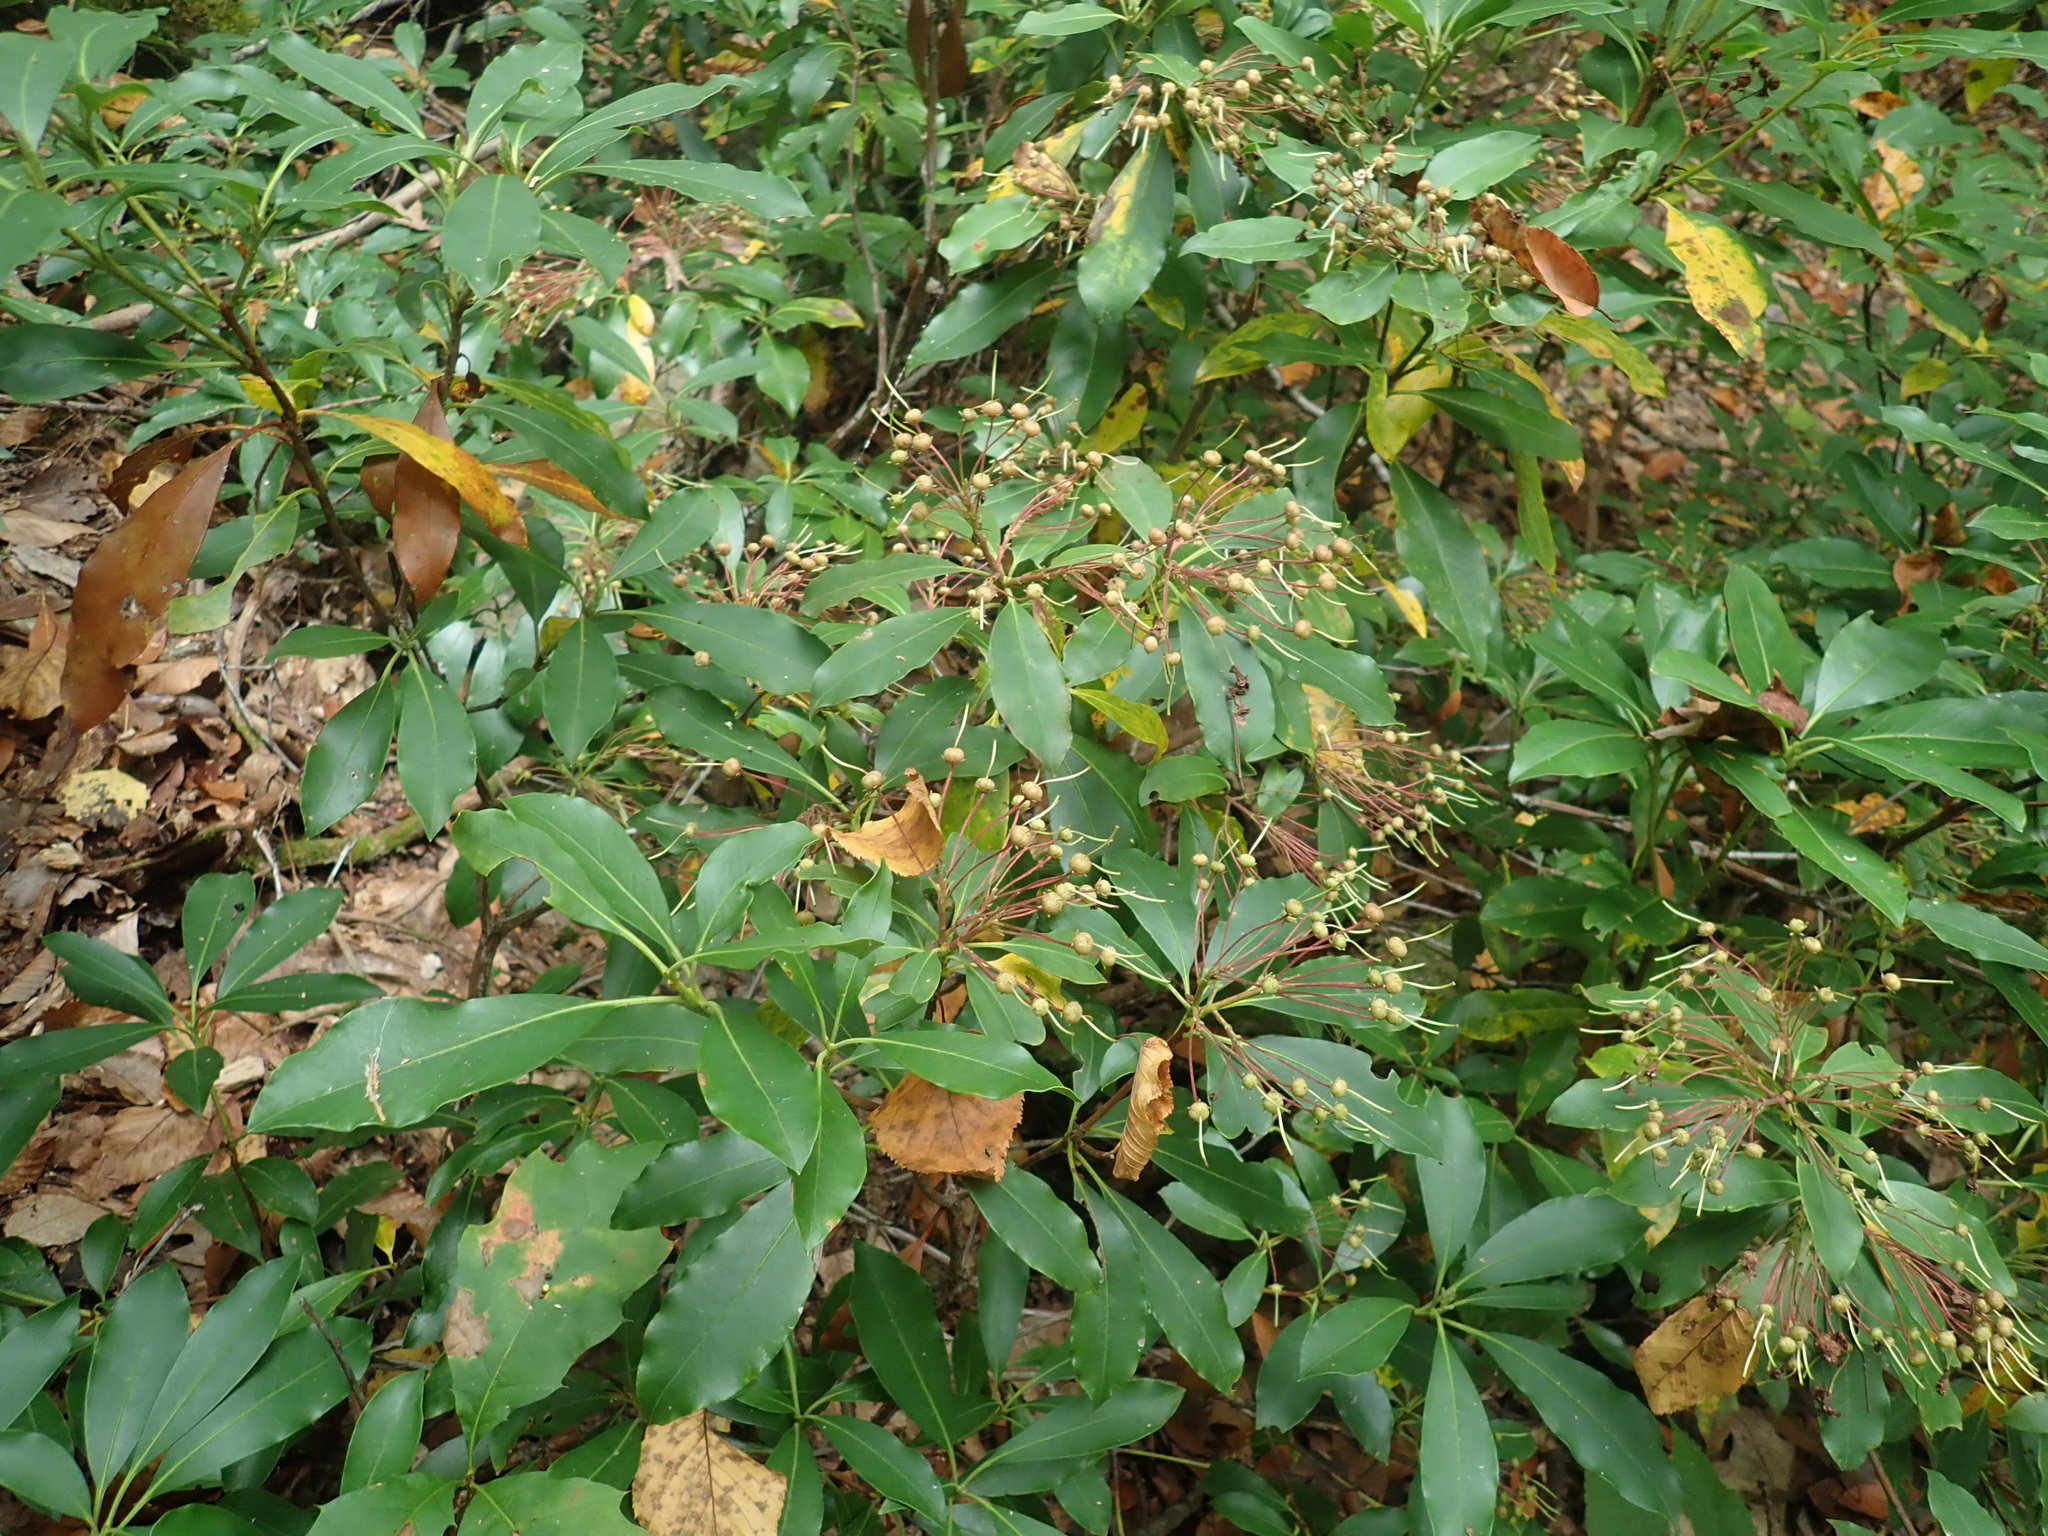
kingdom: Plantae
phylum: Tracheophyta
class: Magnoliopsida
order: Ericales
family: Ericaceae
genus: Kalmia
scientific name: Kalmia latifolia
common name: Mountain-laurel
